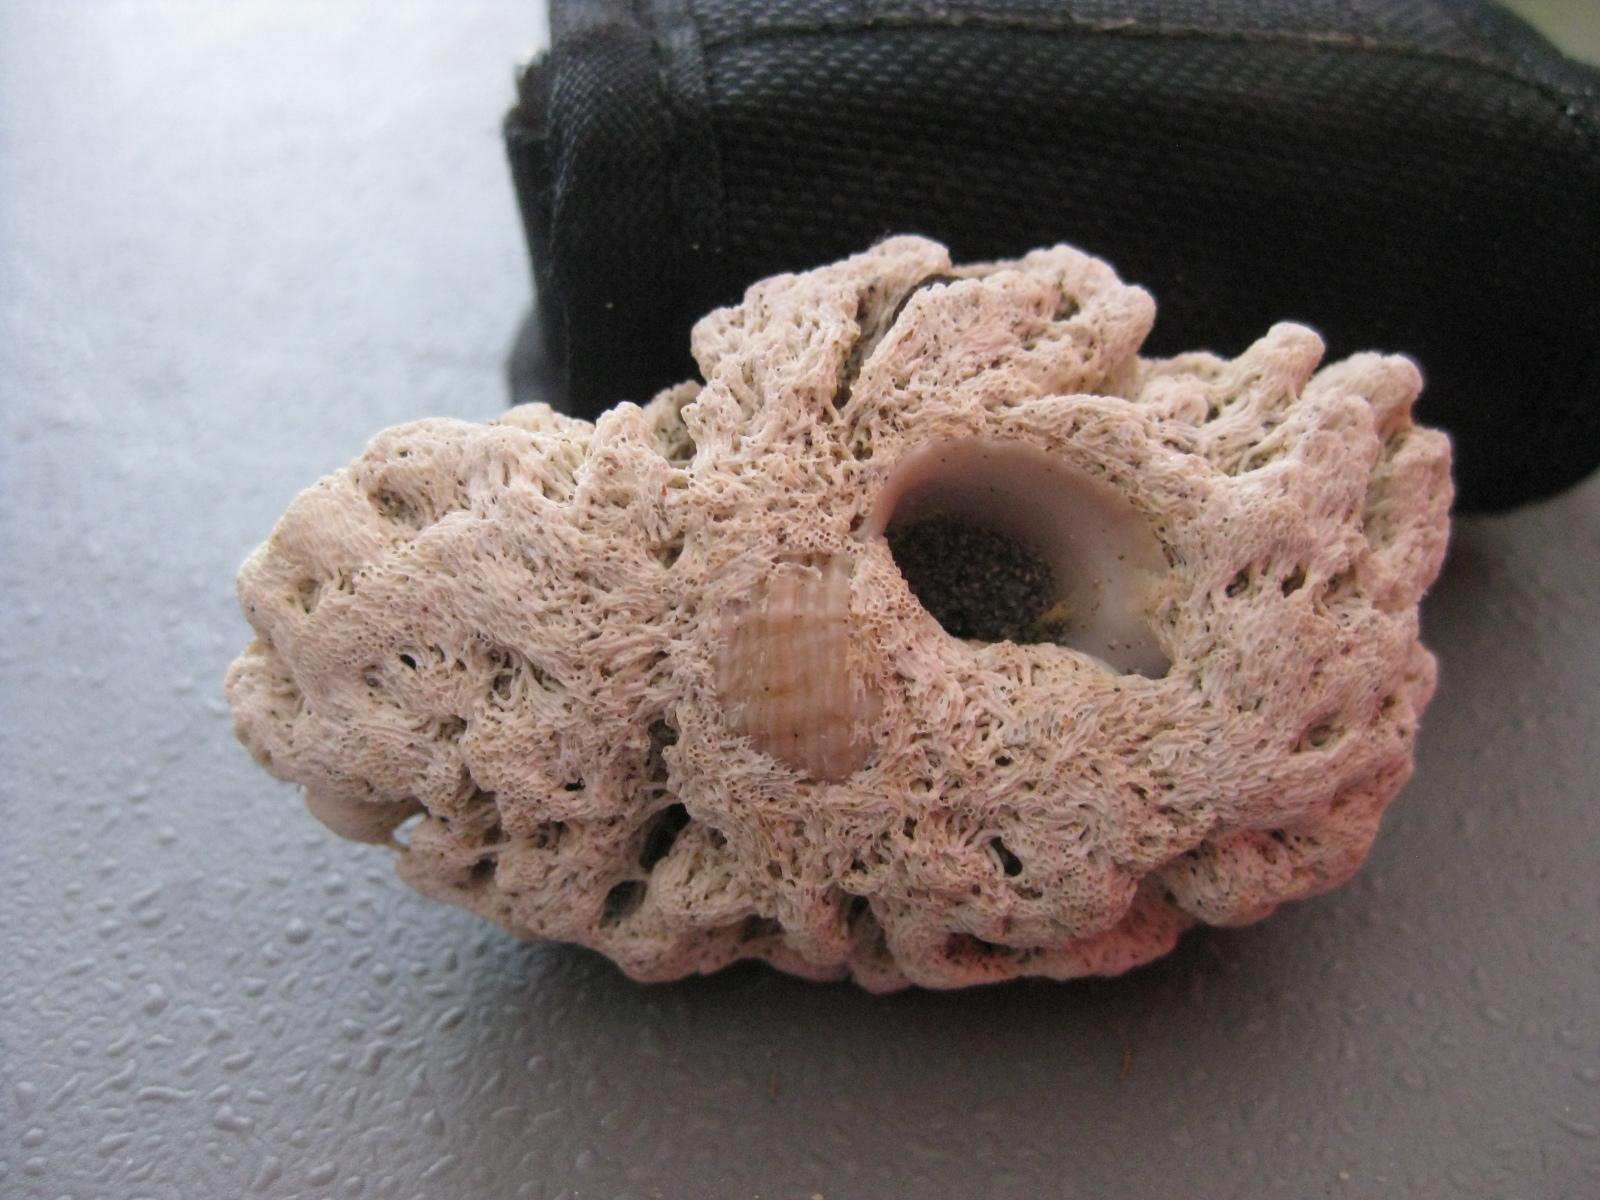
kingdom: Animalia
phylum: Mollusca
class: Gastropoda
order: Neogastropoda
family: Muricidae
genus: Zeatrophon
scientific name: Zeatrophon ambiguus
